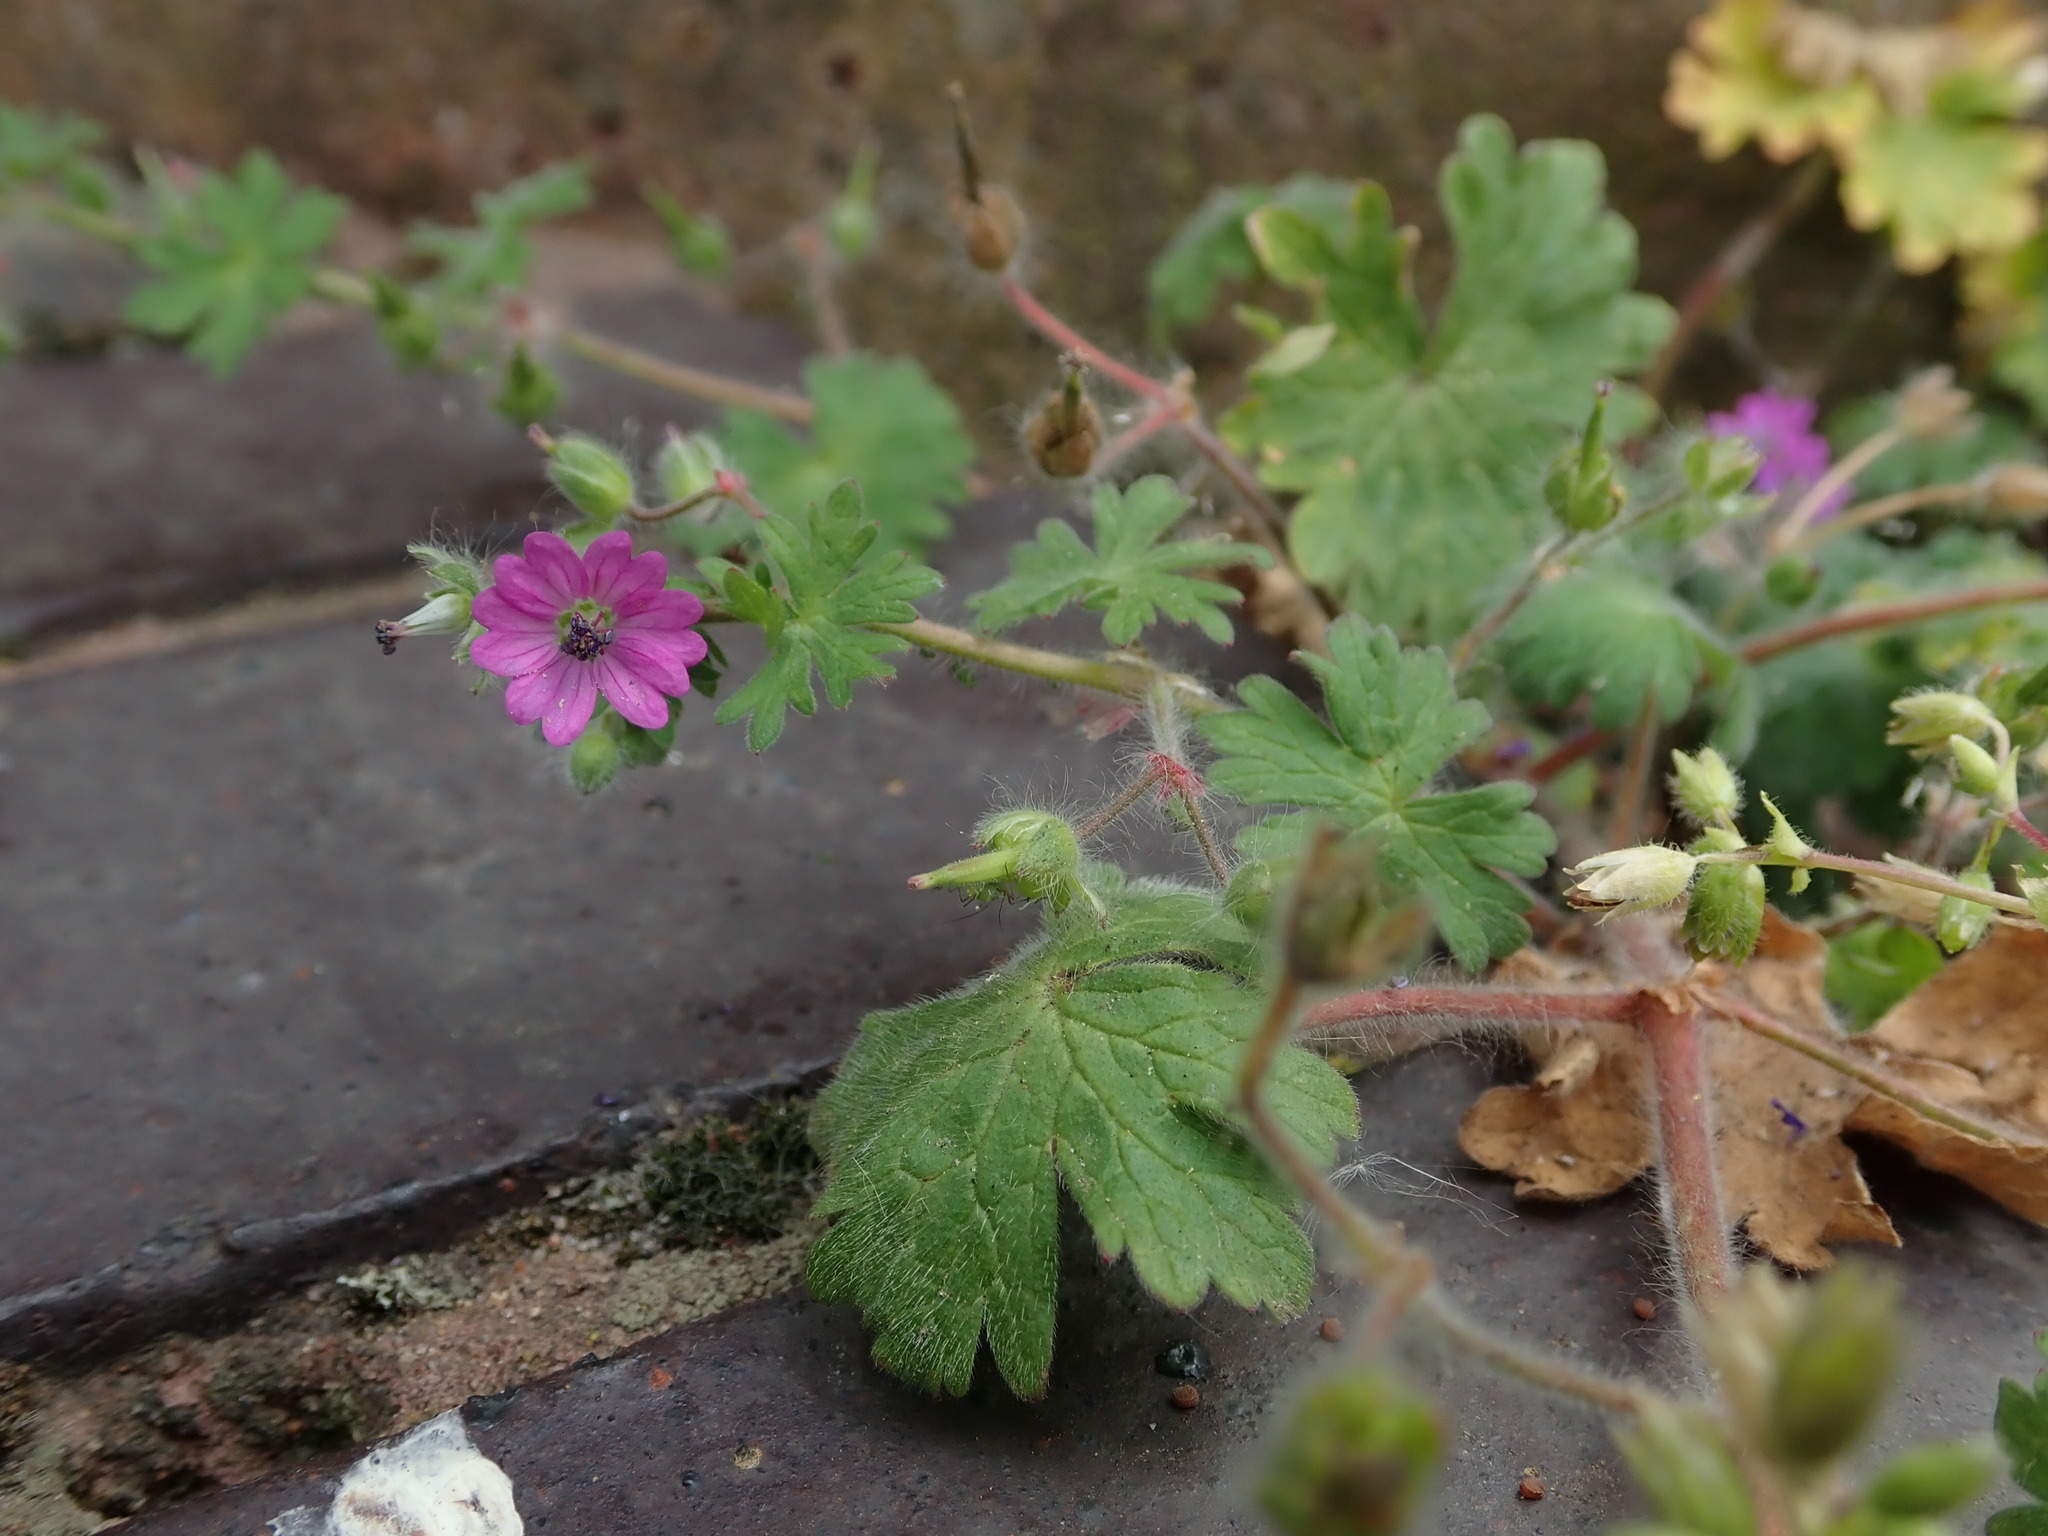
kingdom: Plantae
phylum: Tracheophyta
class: Magnoliopsida
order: Geraniales
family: Geraniaceae
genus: Geranium
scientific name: Geranium molle
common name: Dove's-foot crane's-bill
